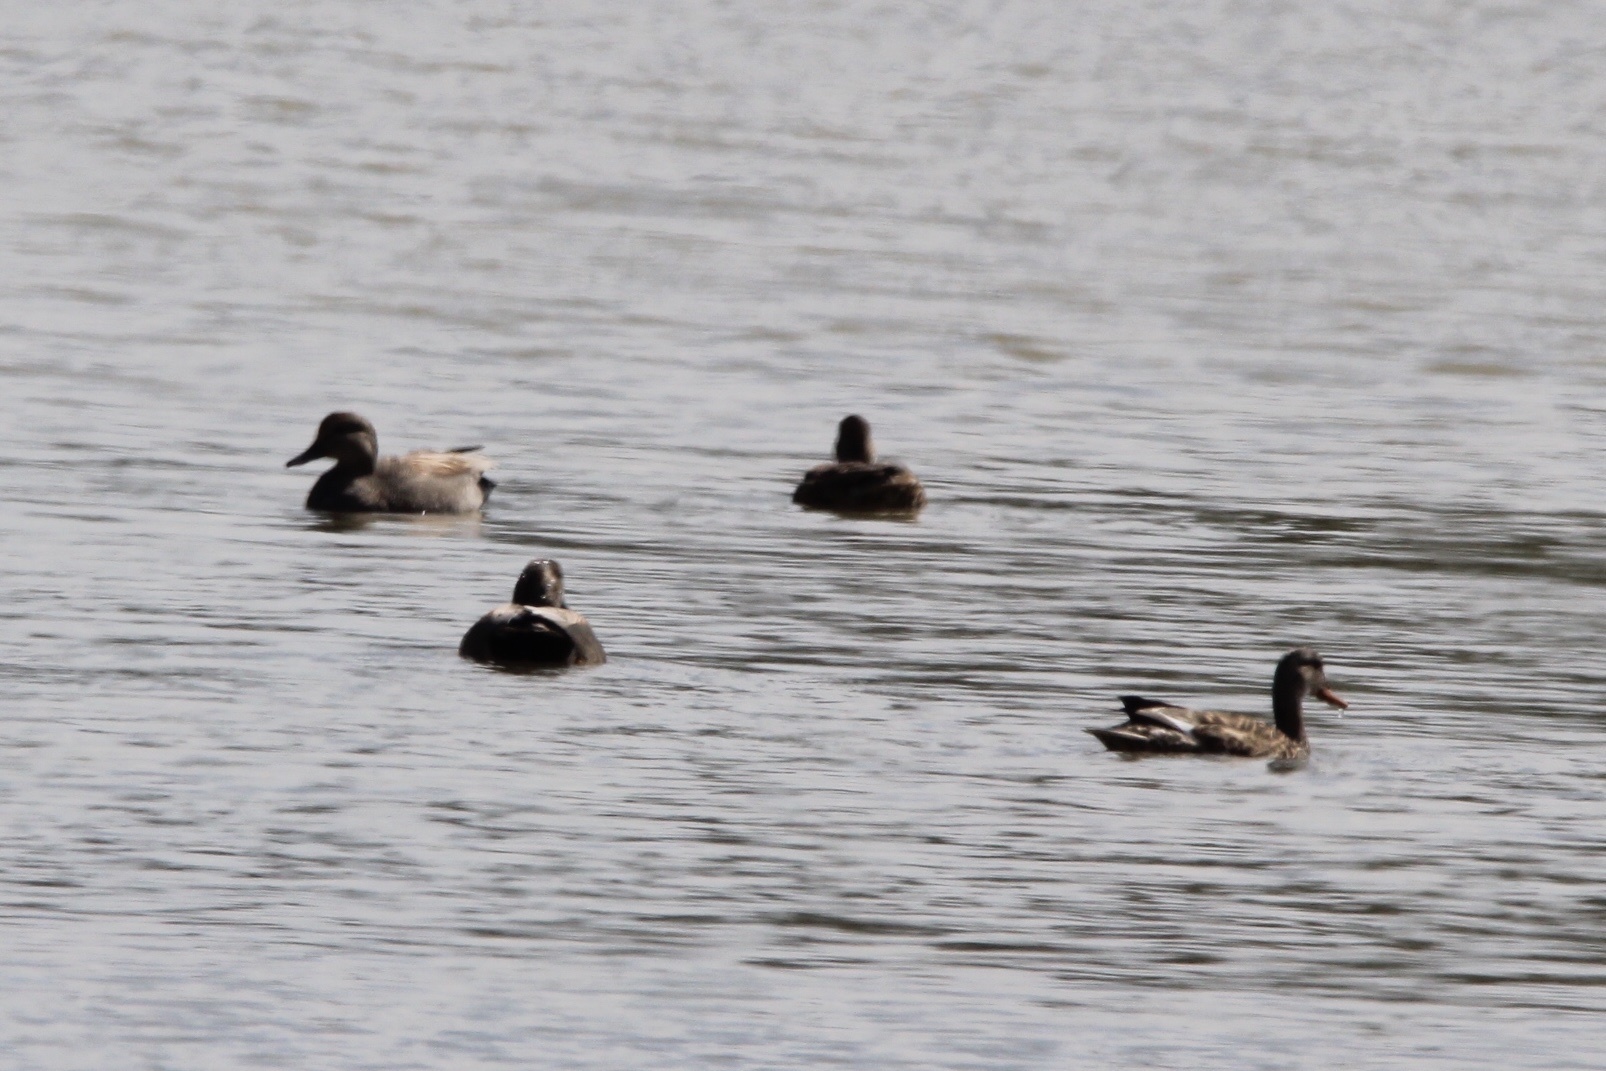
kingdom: Animalia
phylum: Chordata
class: Aves
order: Anseriformes
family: Anatidae
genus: Mareca
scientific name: Mareca strepera
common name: Gadwall
